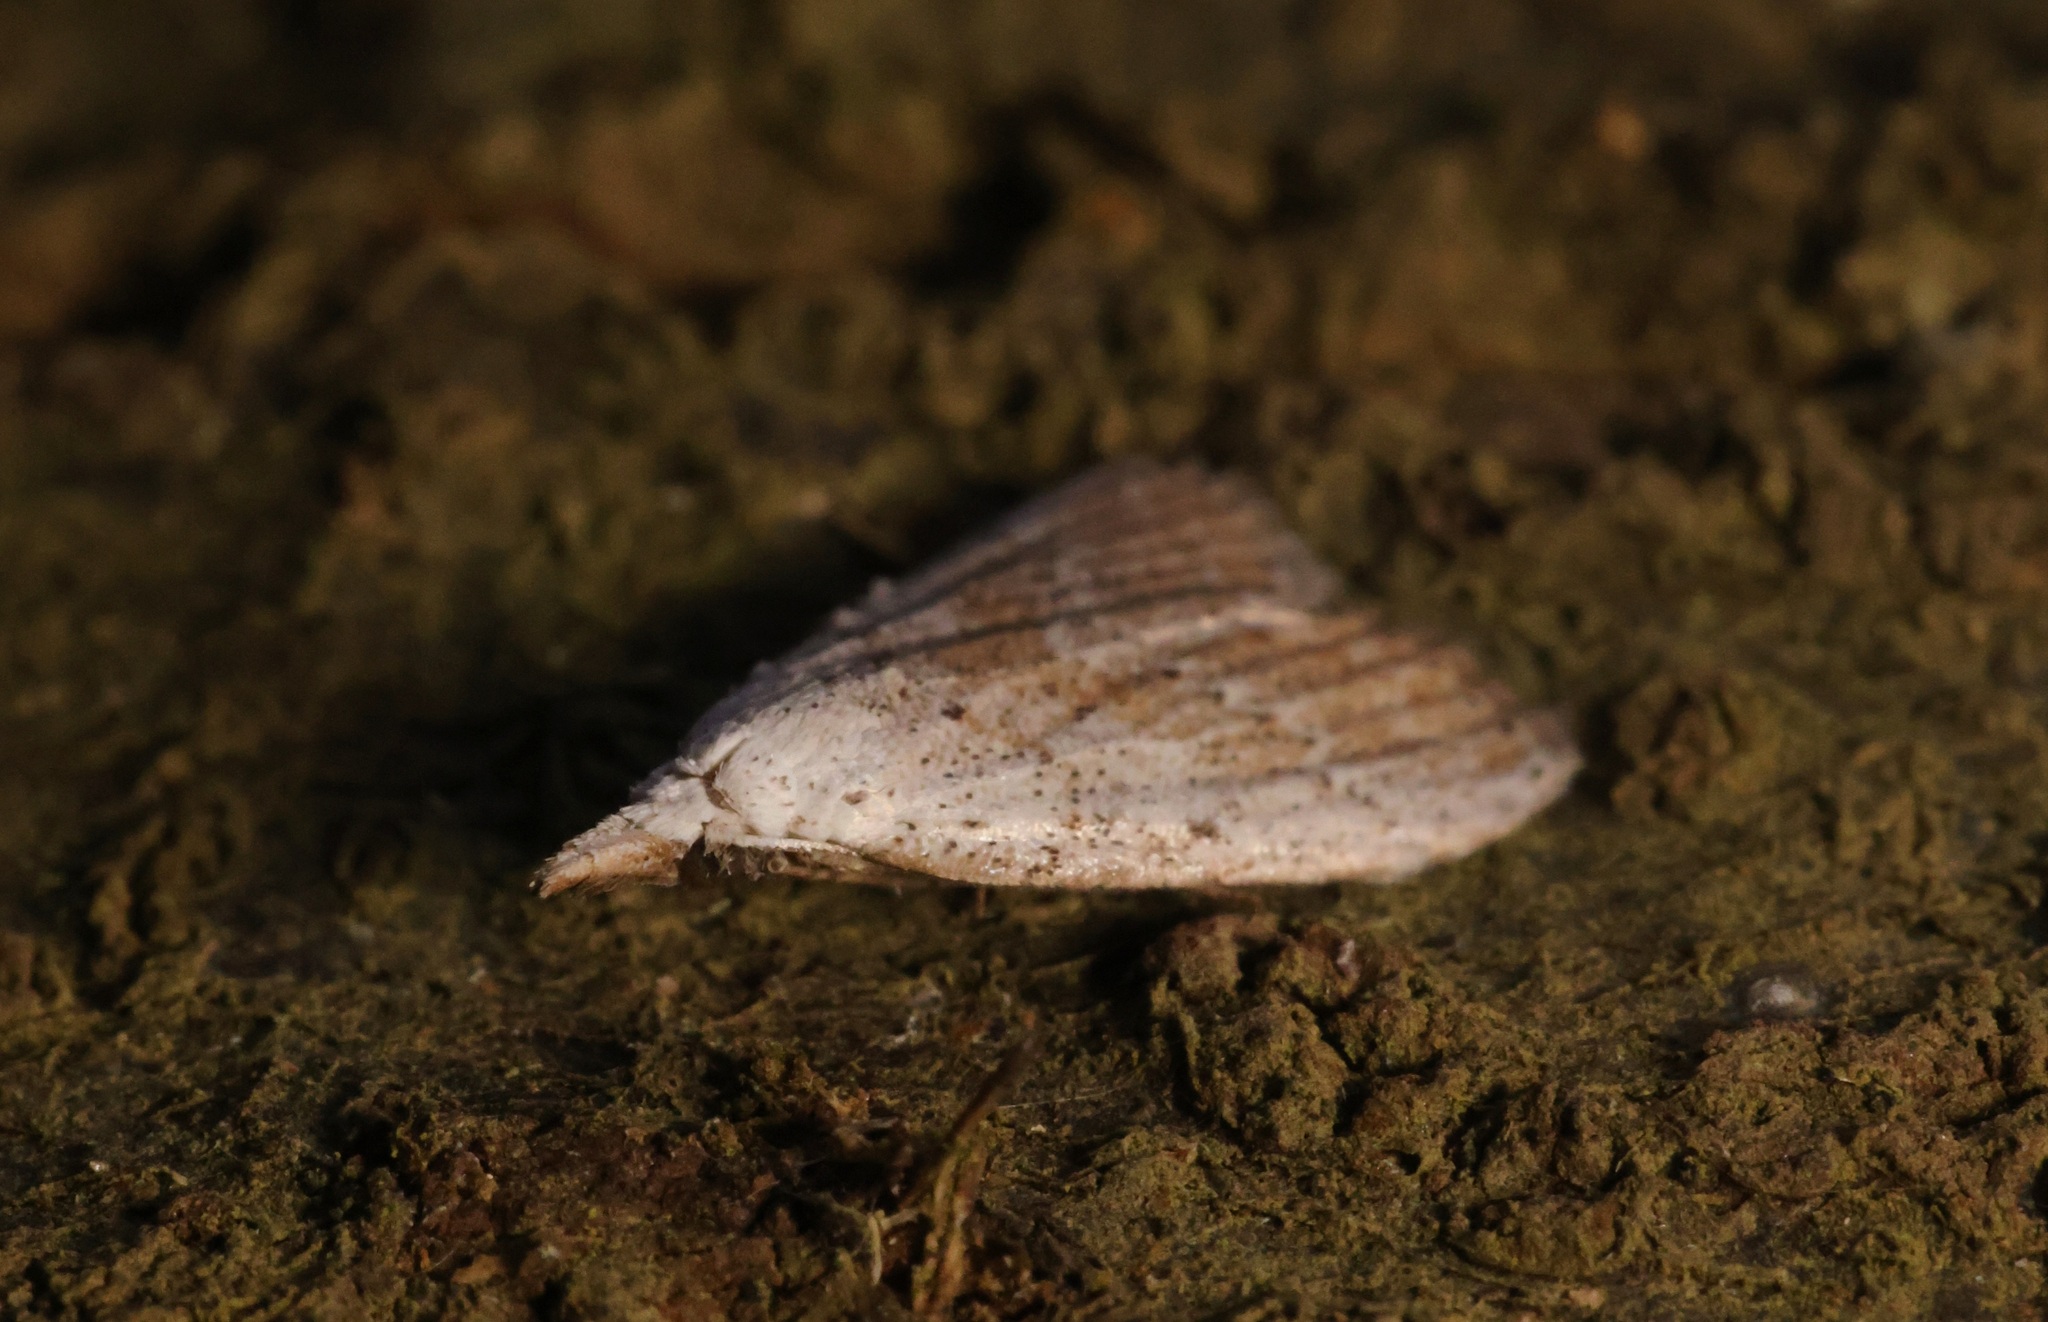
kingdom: Animalia
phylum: Arthropoda
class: Insecta
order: Lepidoptera
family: Nolidae
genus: Meganola
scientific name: Meganola brunellus
